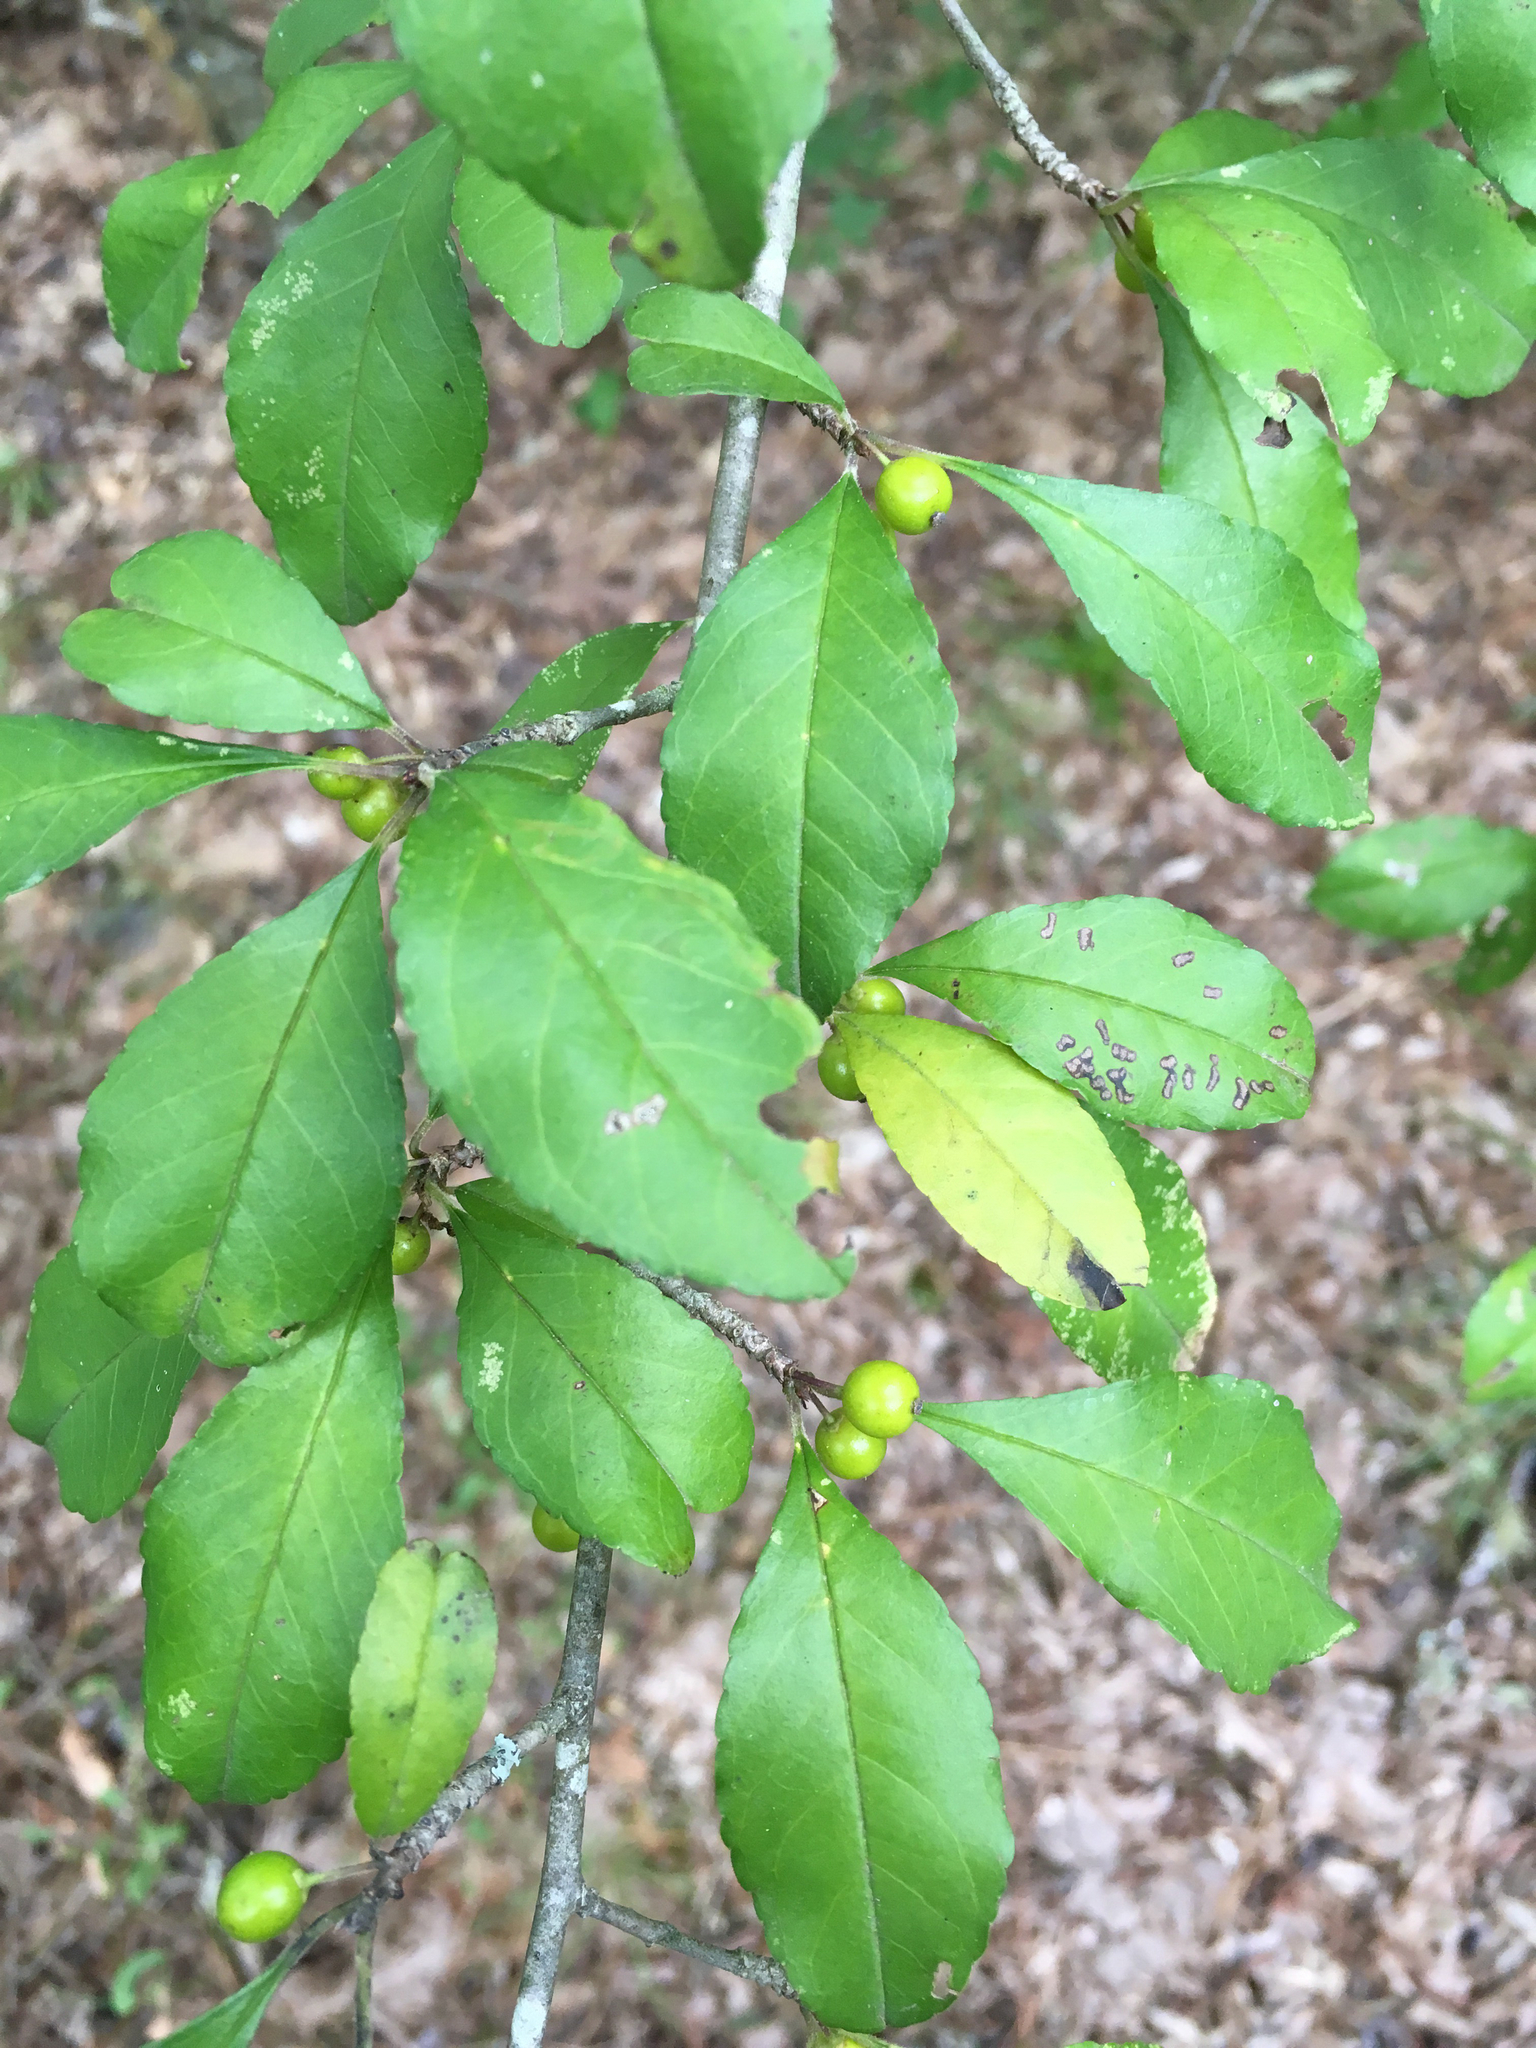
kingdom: Plantae
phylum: Tracheophyta
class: Magnoliopsida
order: Aquifoliales
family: Aquifoliaceae
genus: Ilex
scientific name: Ilex decidua
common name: Possum-haw
